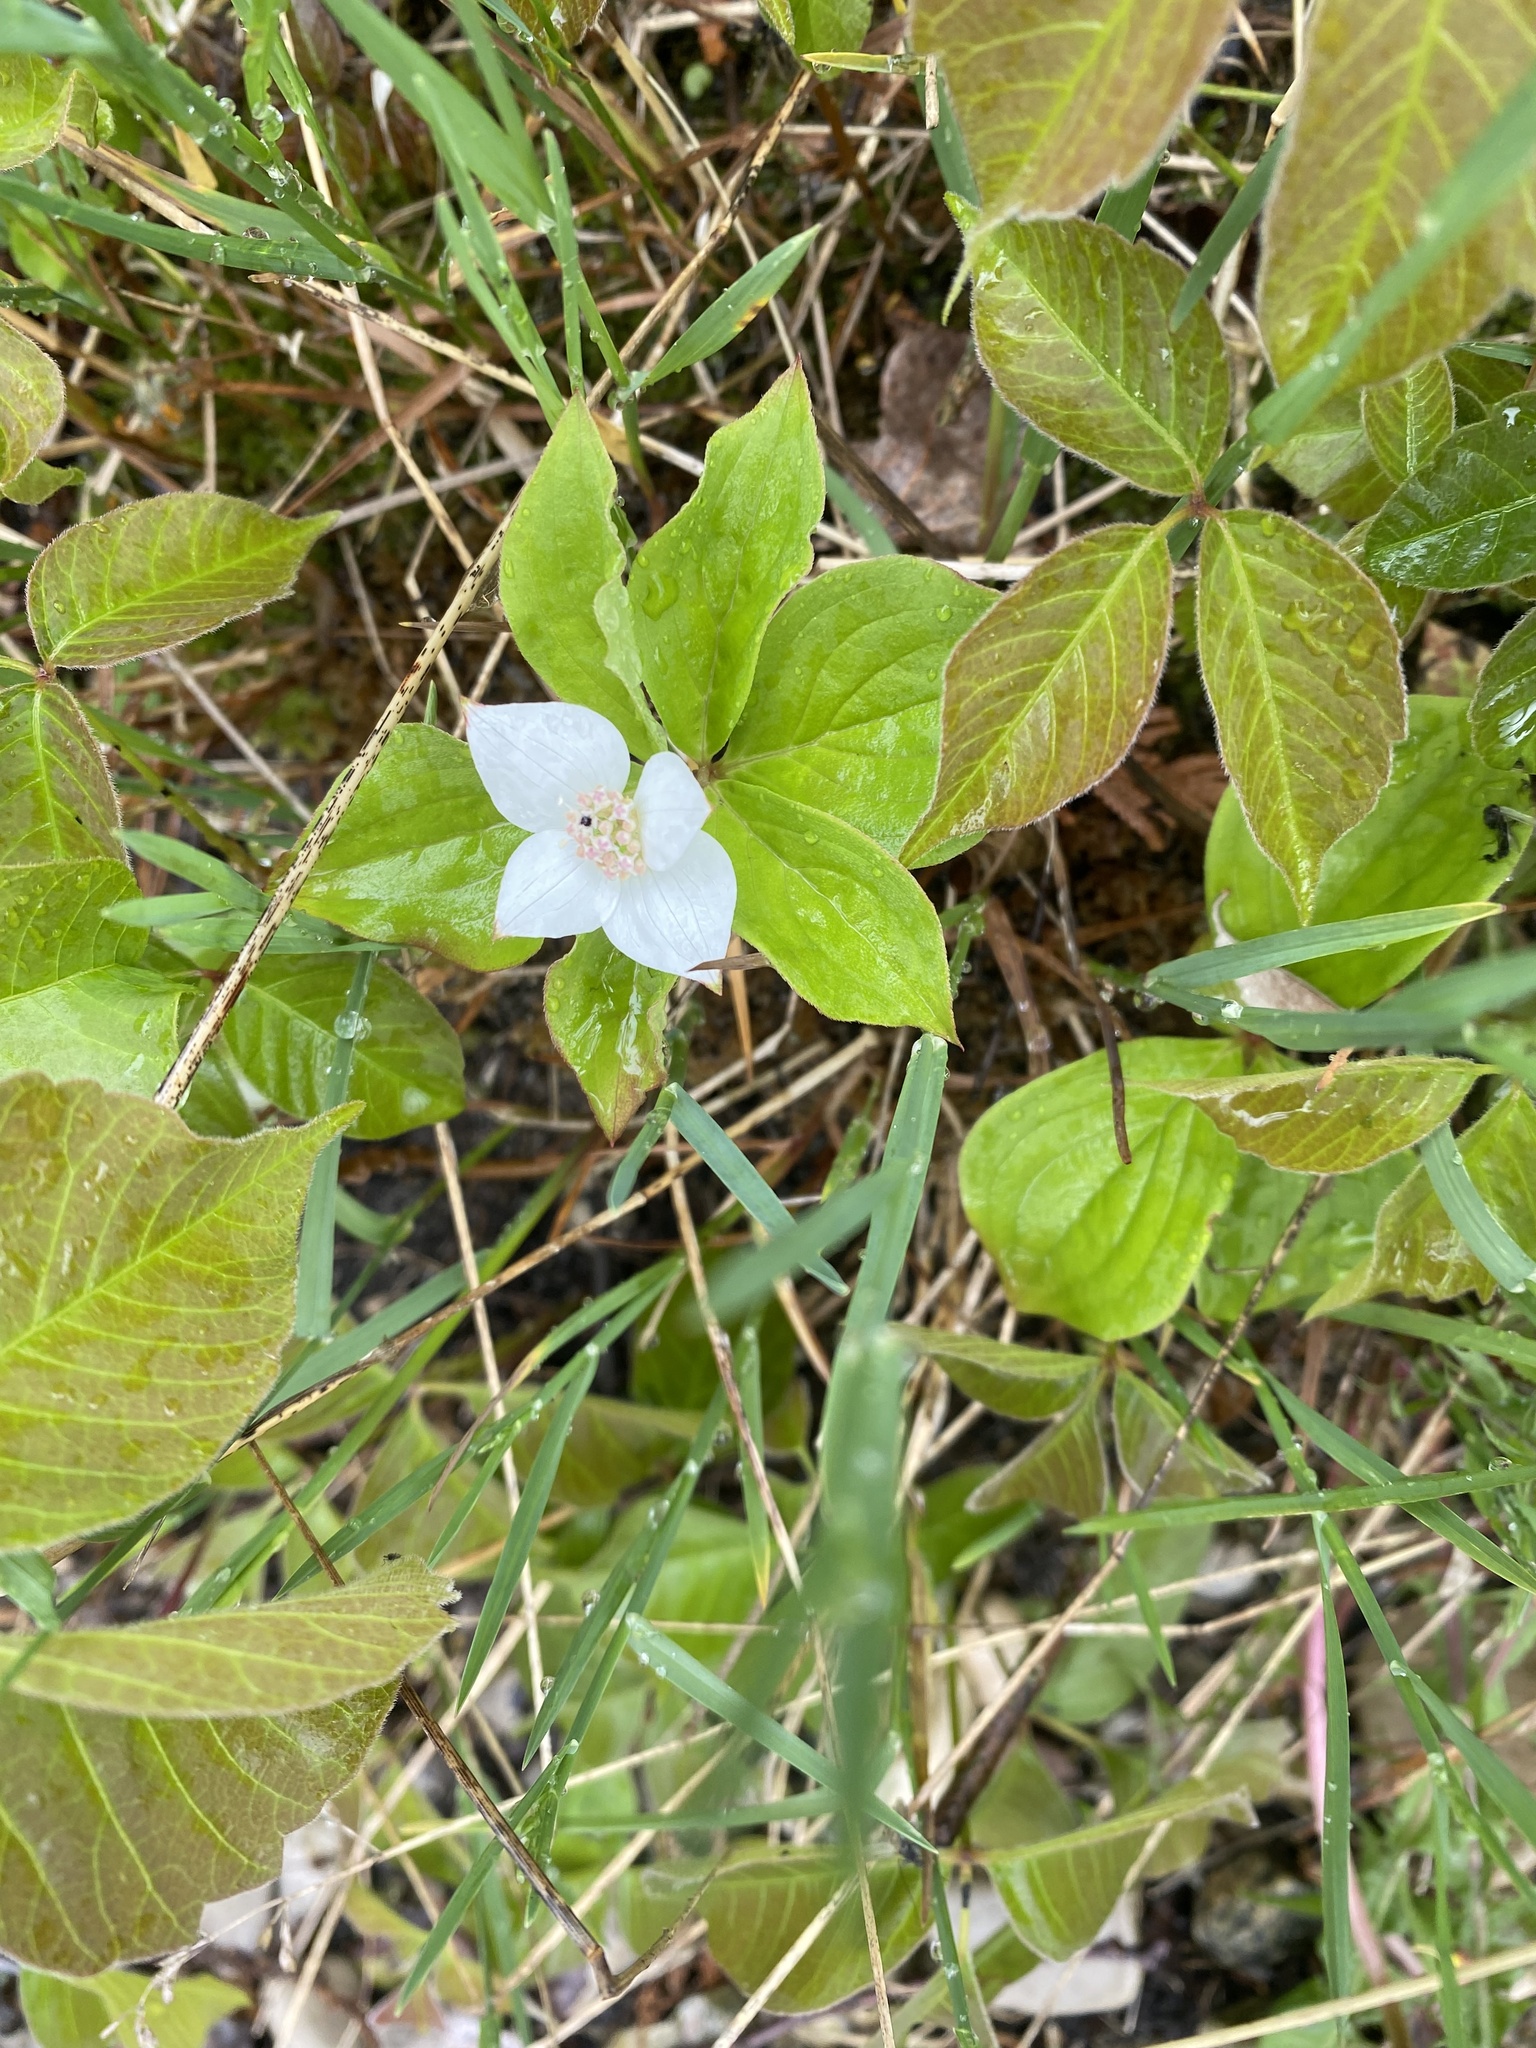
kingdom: Plantae
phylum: Tracheophyta
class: Magnoliopsida
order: Cornales
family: Cornaceae
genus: Cornus
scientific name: Cornus canadensis
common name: Creeping dogwood
